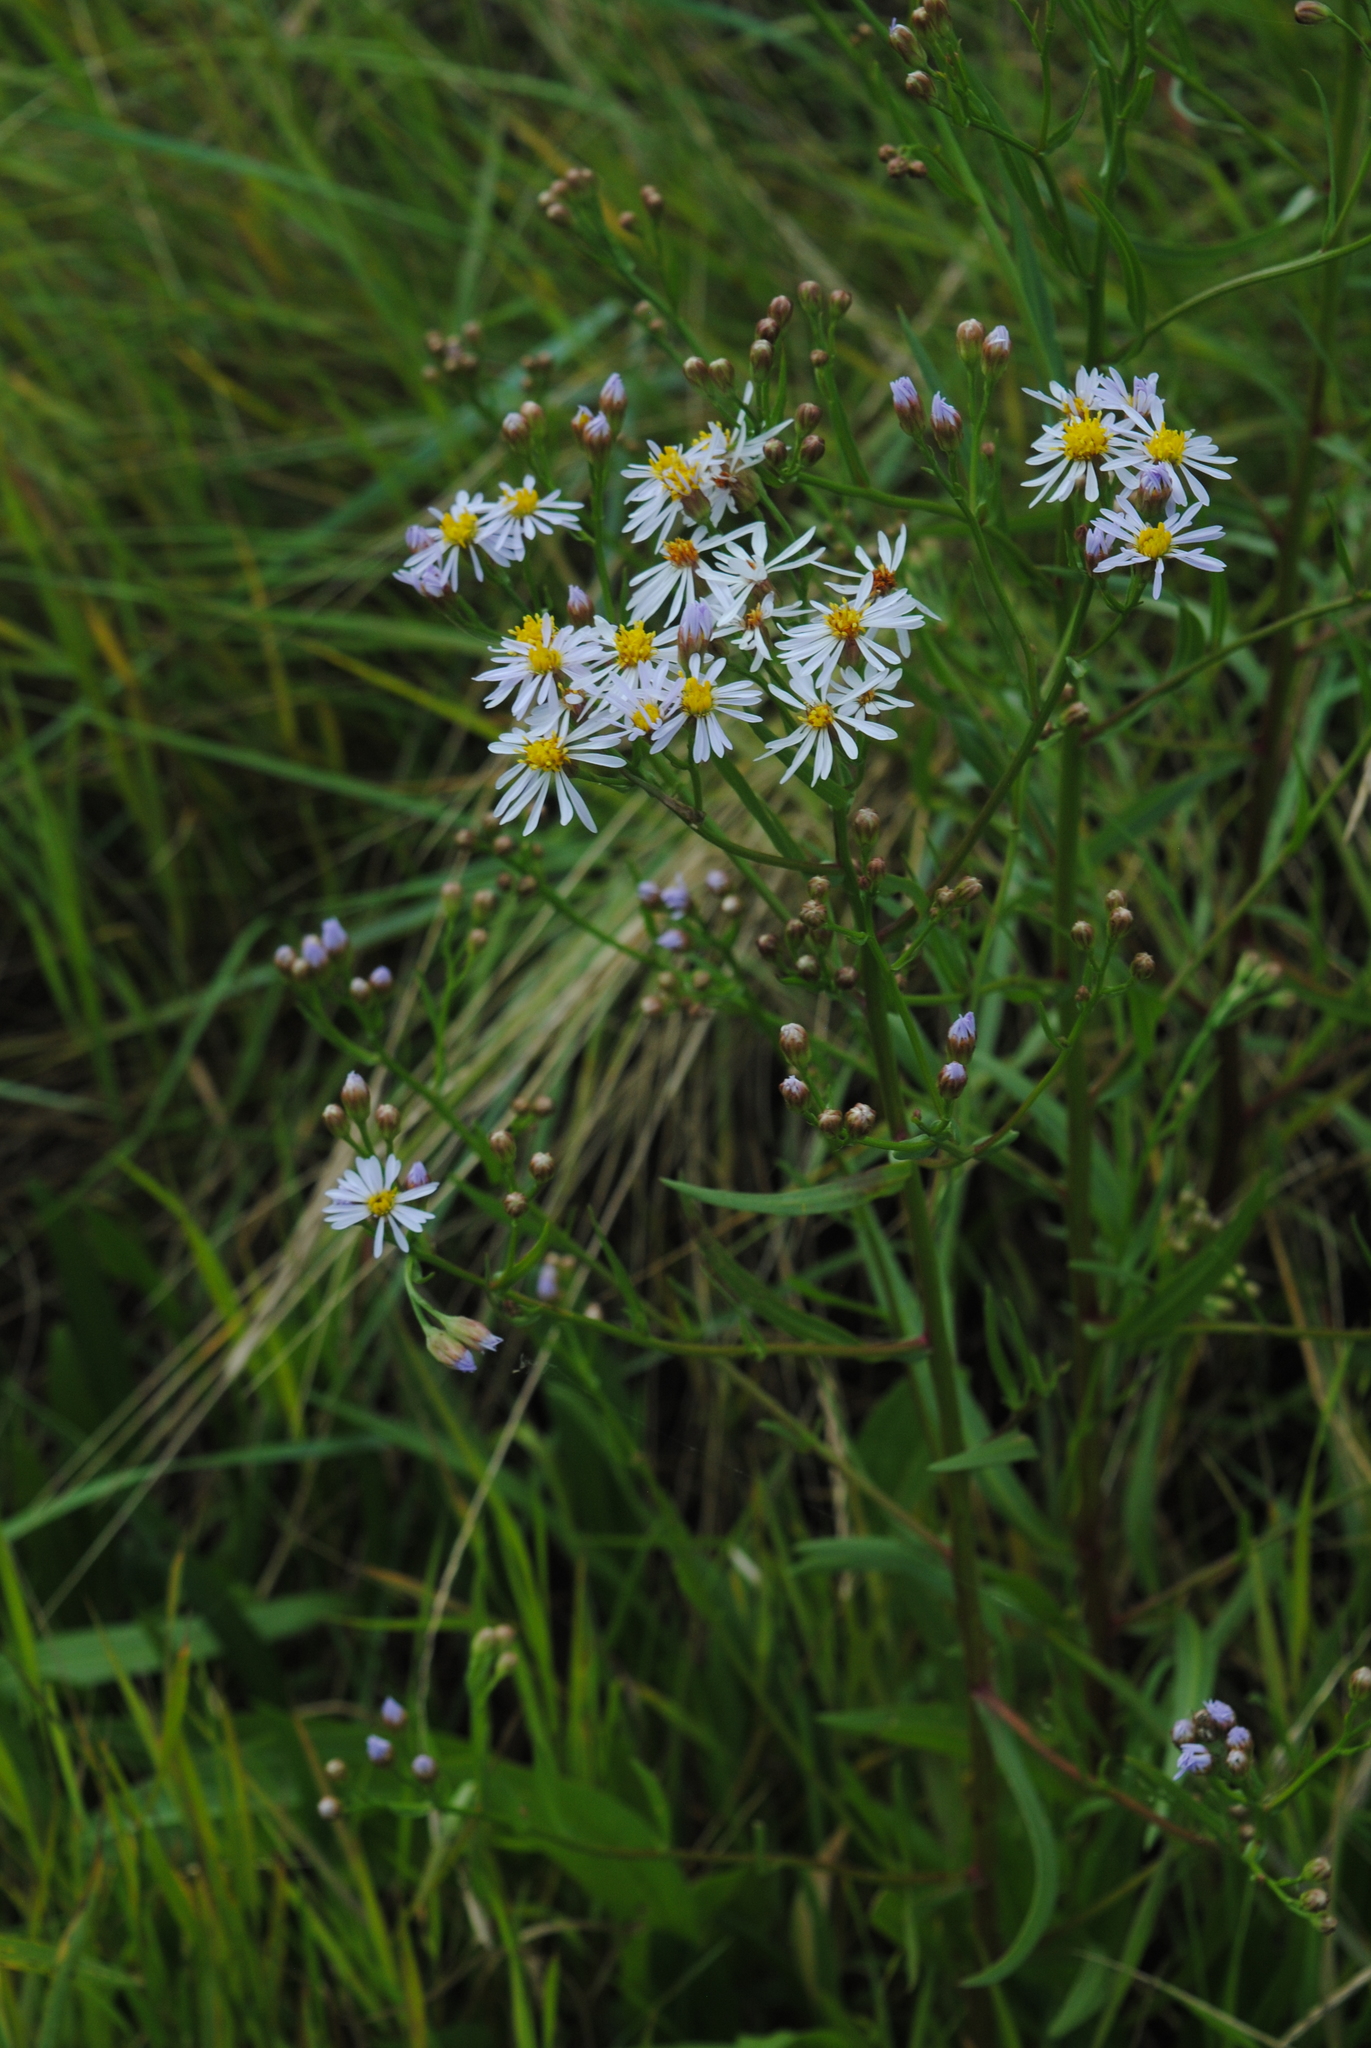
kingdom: Plantae
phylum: Tracheophyta
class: Magnoliopsida
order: Asterales
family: Asteraceae
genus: Tripolium
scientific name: Tripolium pannonicum
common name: Sea aster
